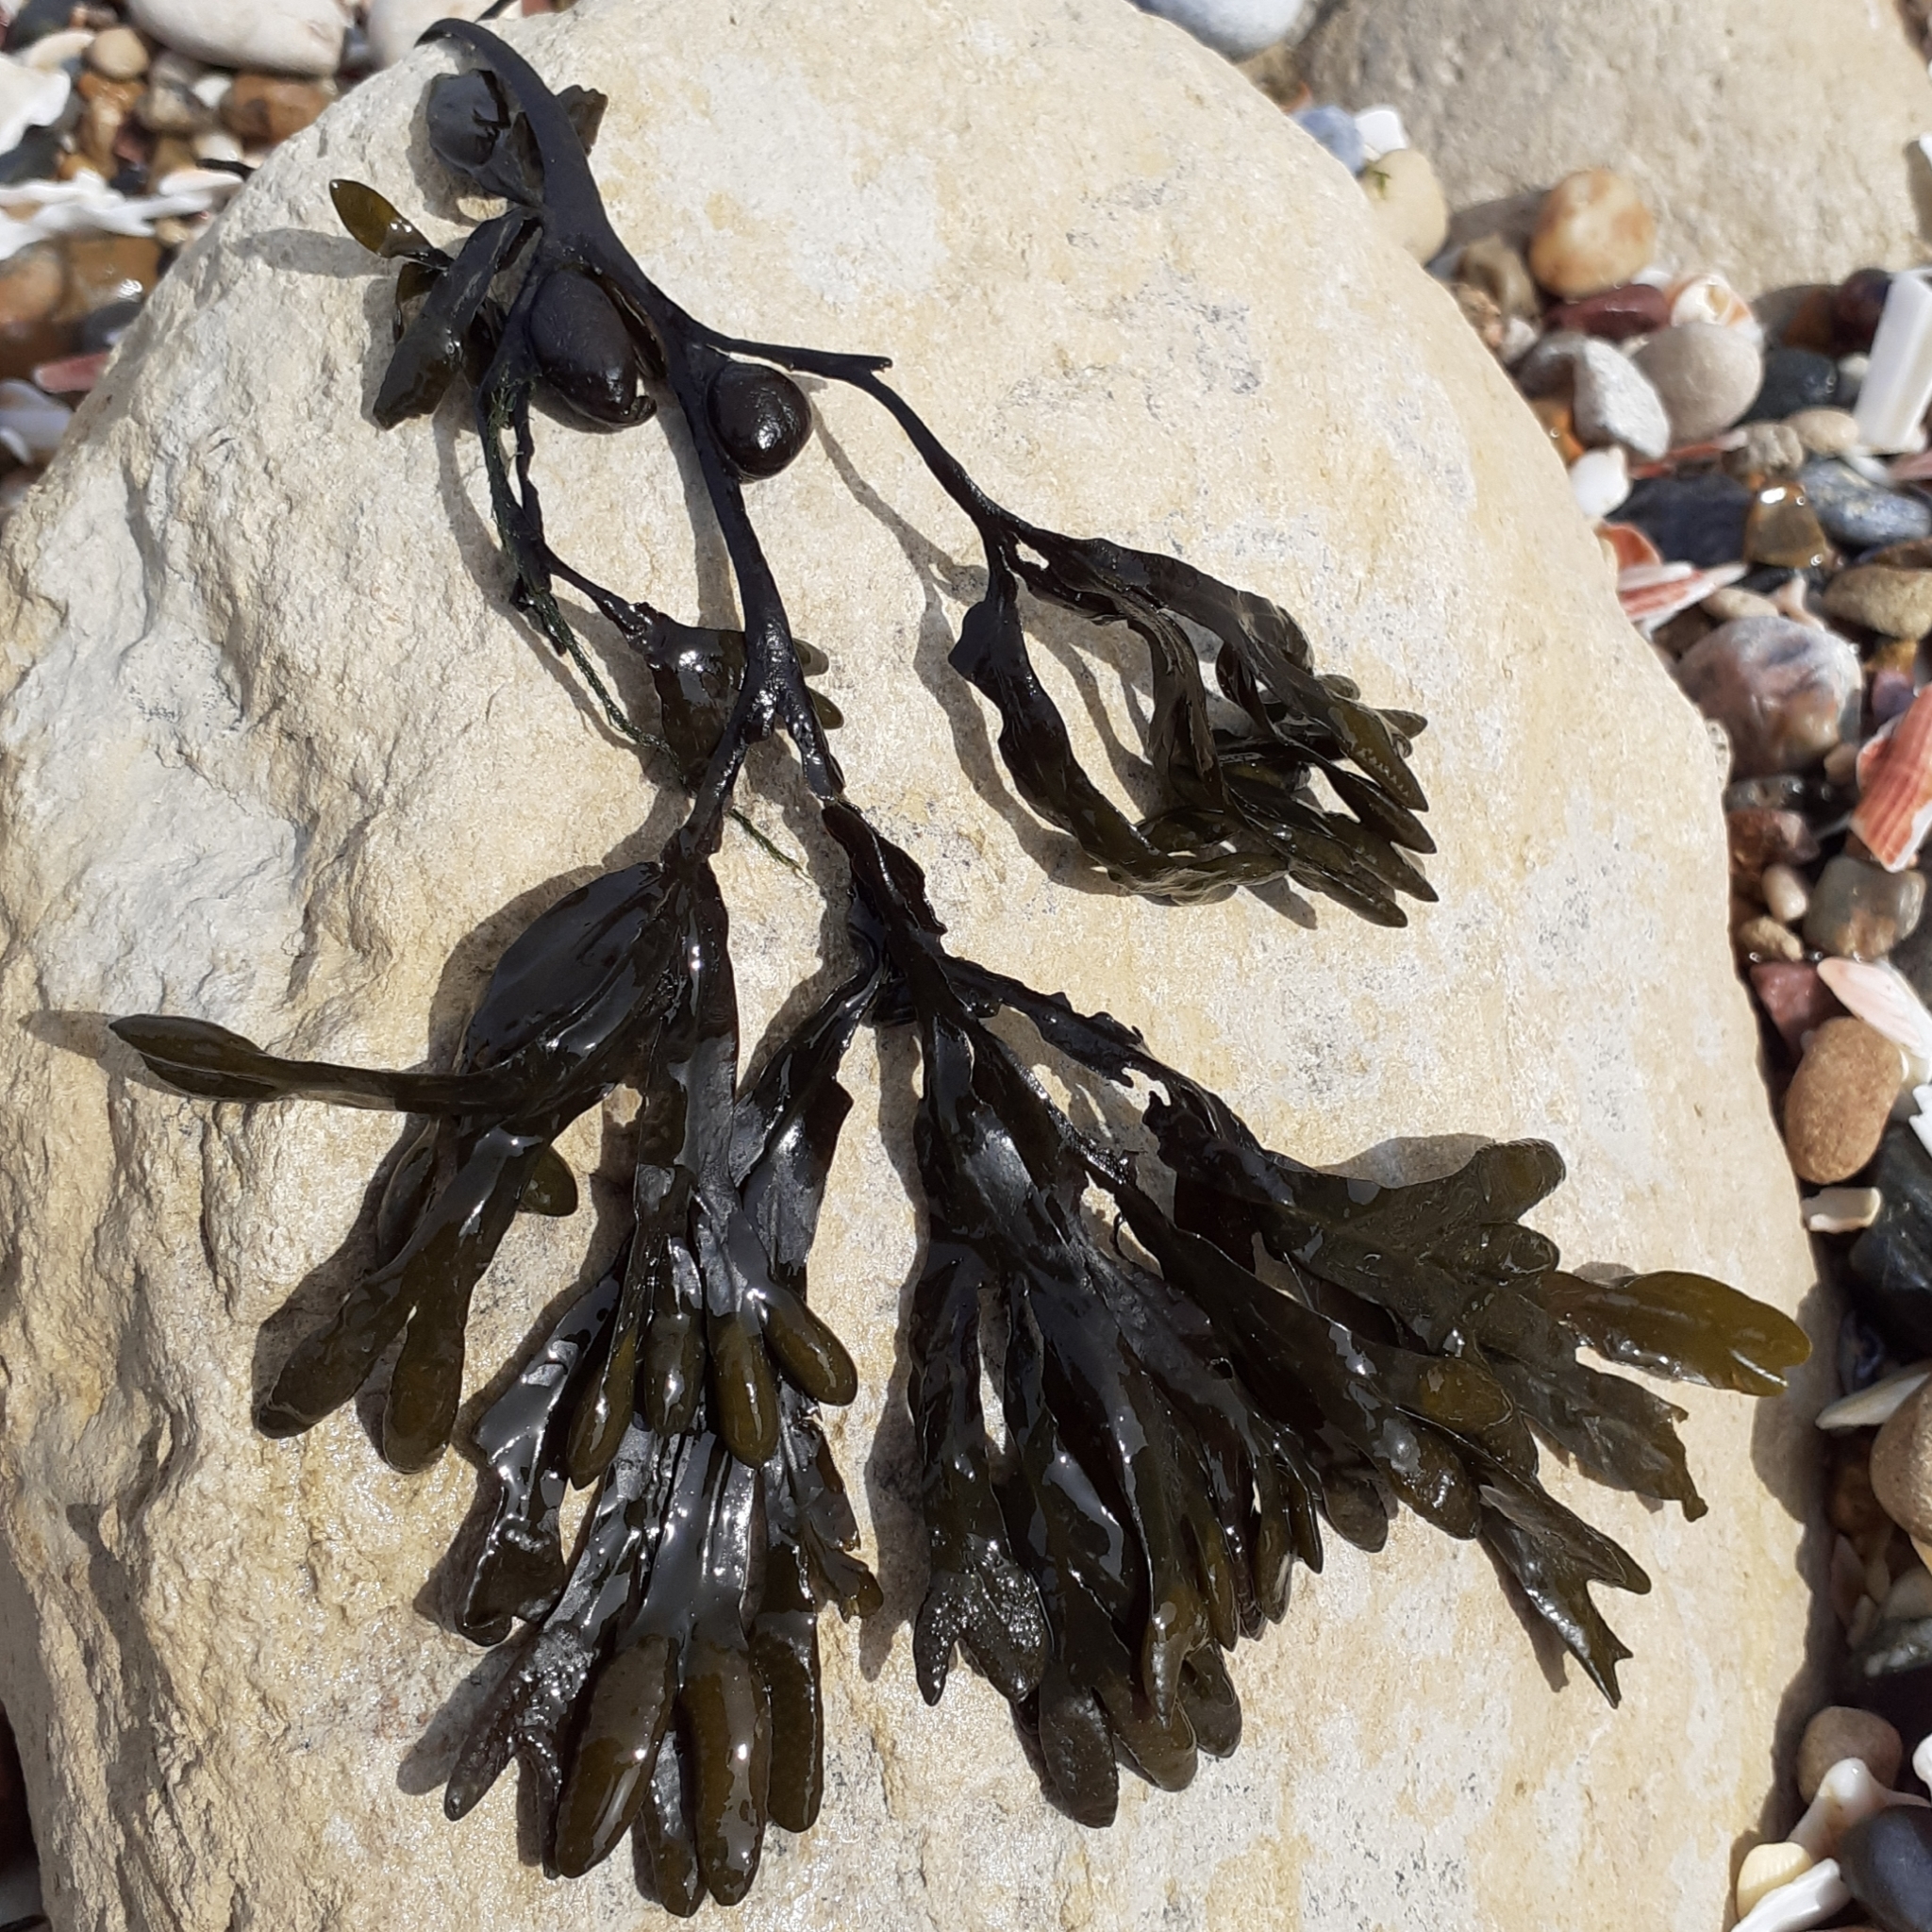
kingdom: Chromista
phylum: Ochrophyta
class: Phaeophyceae
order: Fucales
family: Fucaceae
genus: Fucus
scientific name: Fucus vesiculosus
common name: Bladder wrack
